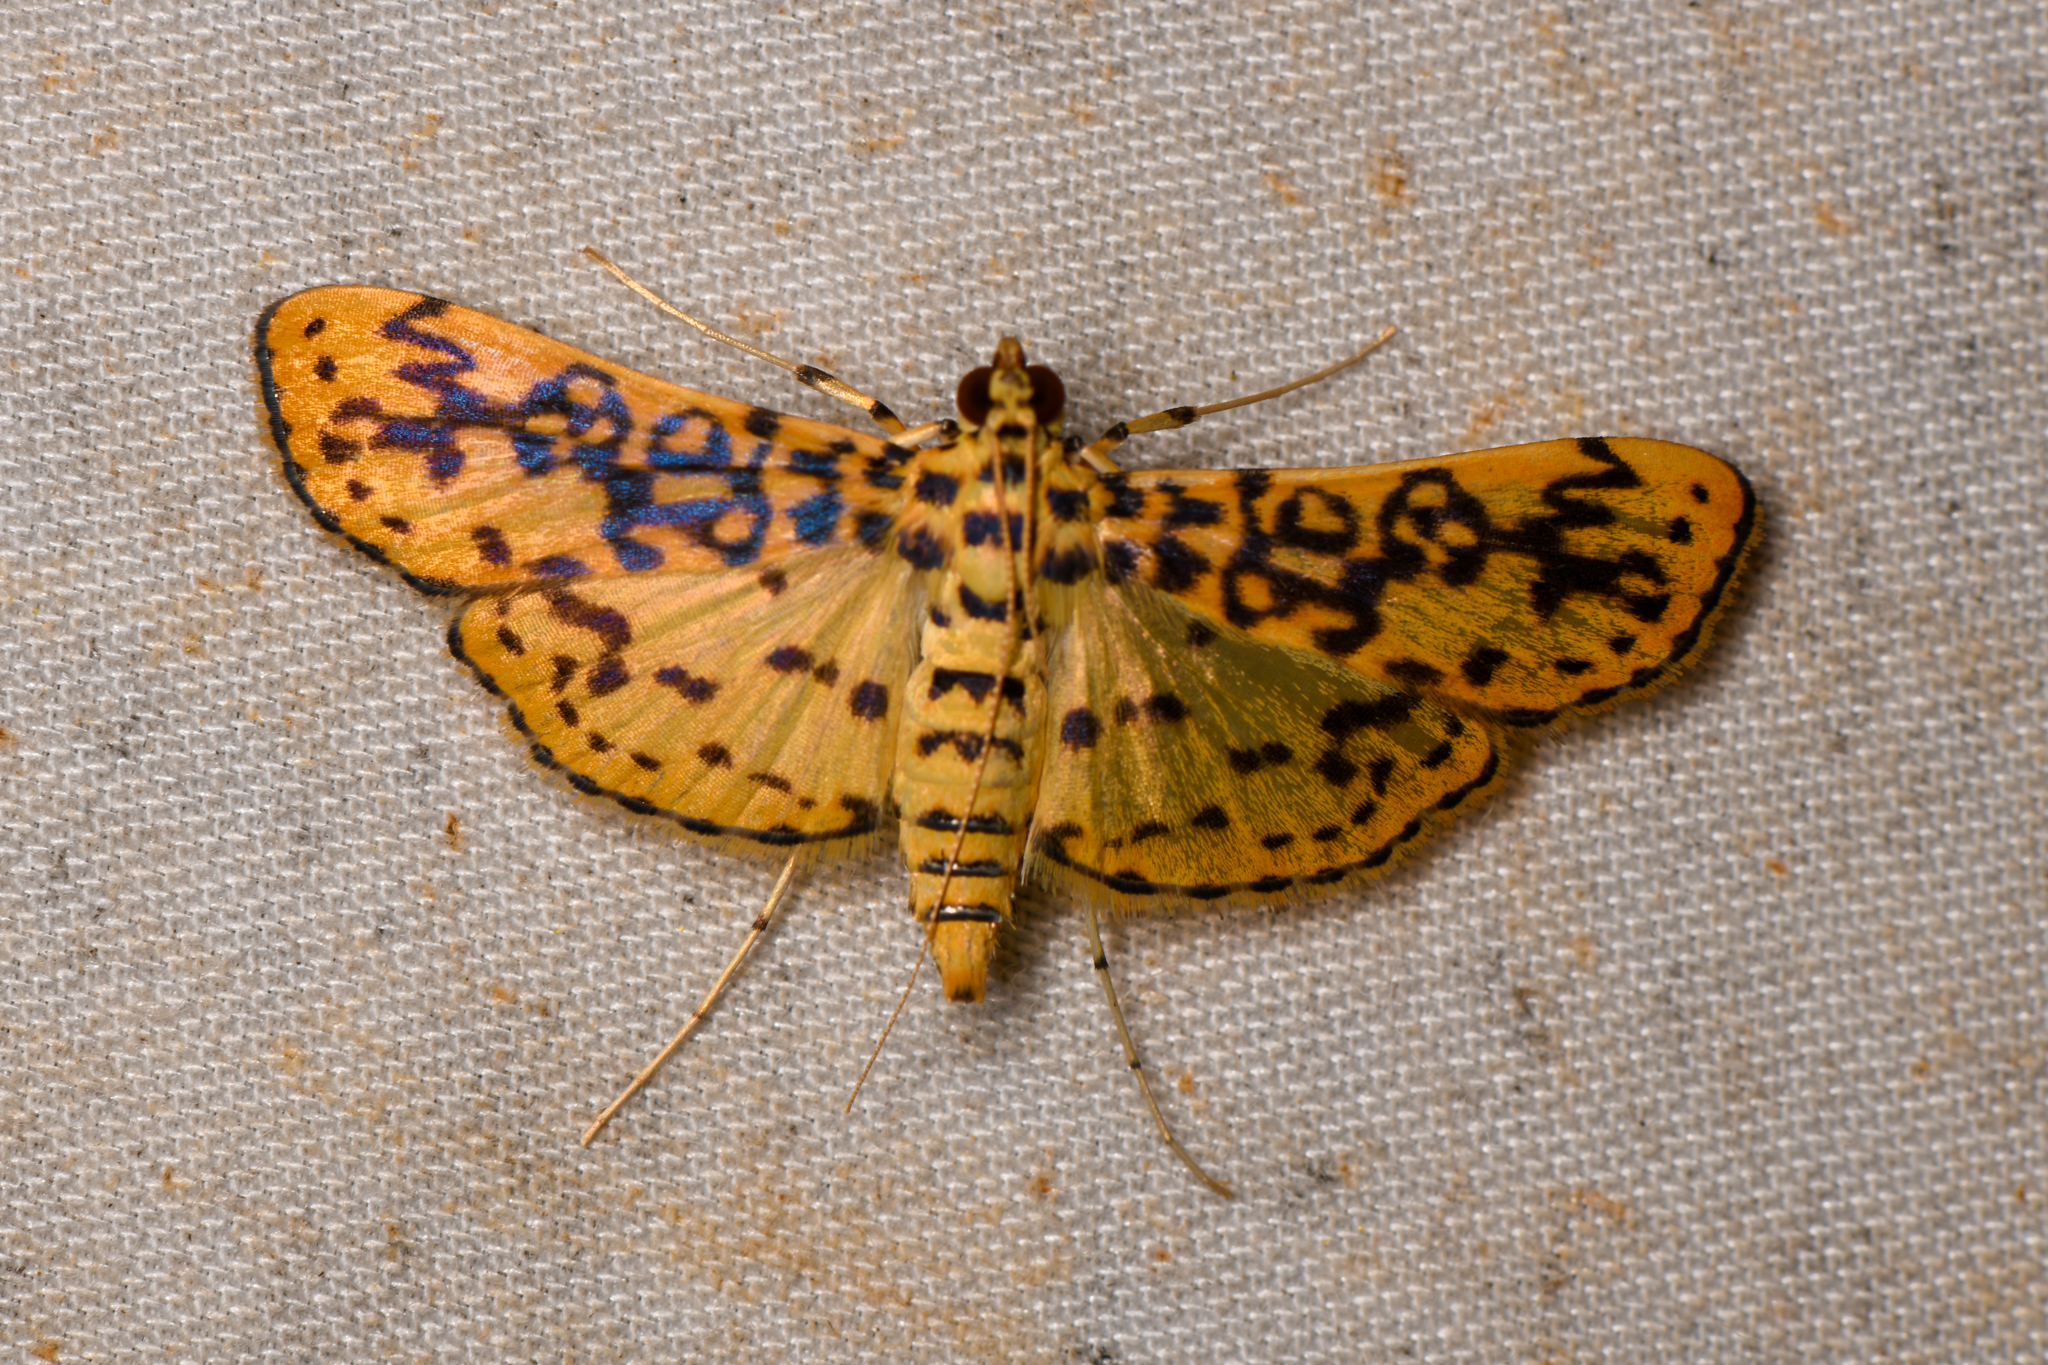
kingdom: Animalia
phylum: Arthropoda
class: Insecta
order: Lepidoptera
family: Crambidae
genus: Asturodes
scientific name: Asturodes fimbriauralis
